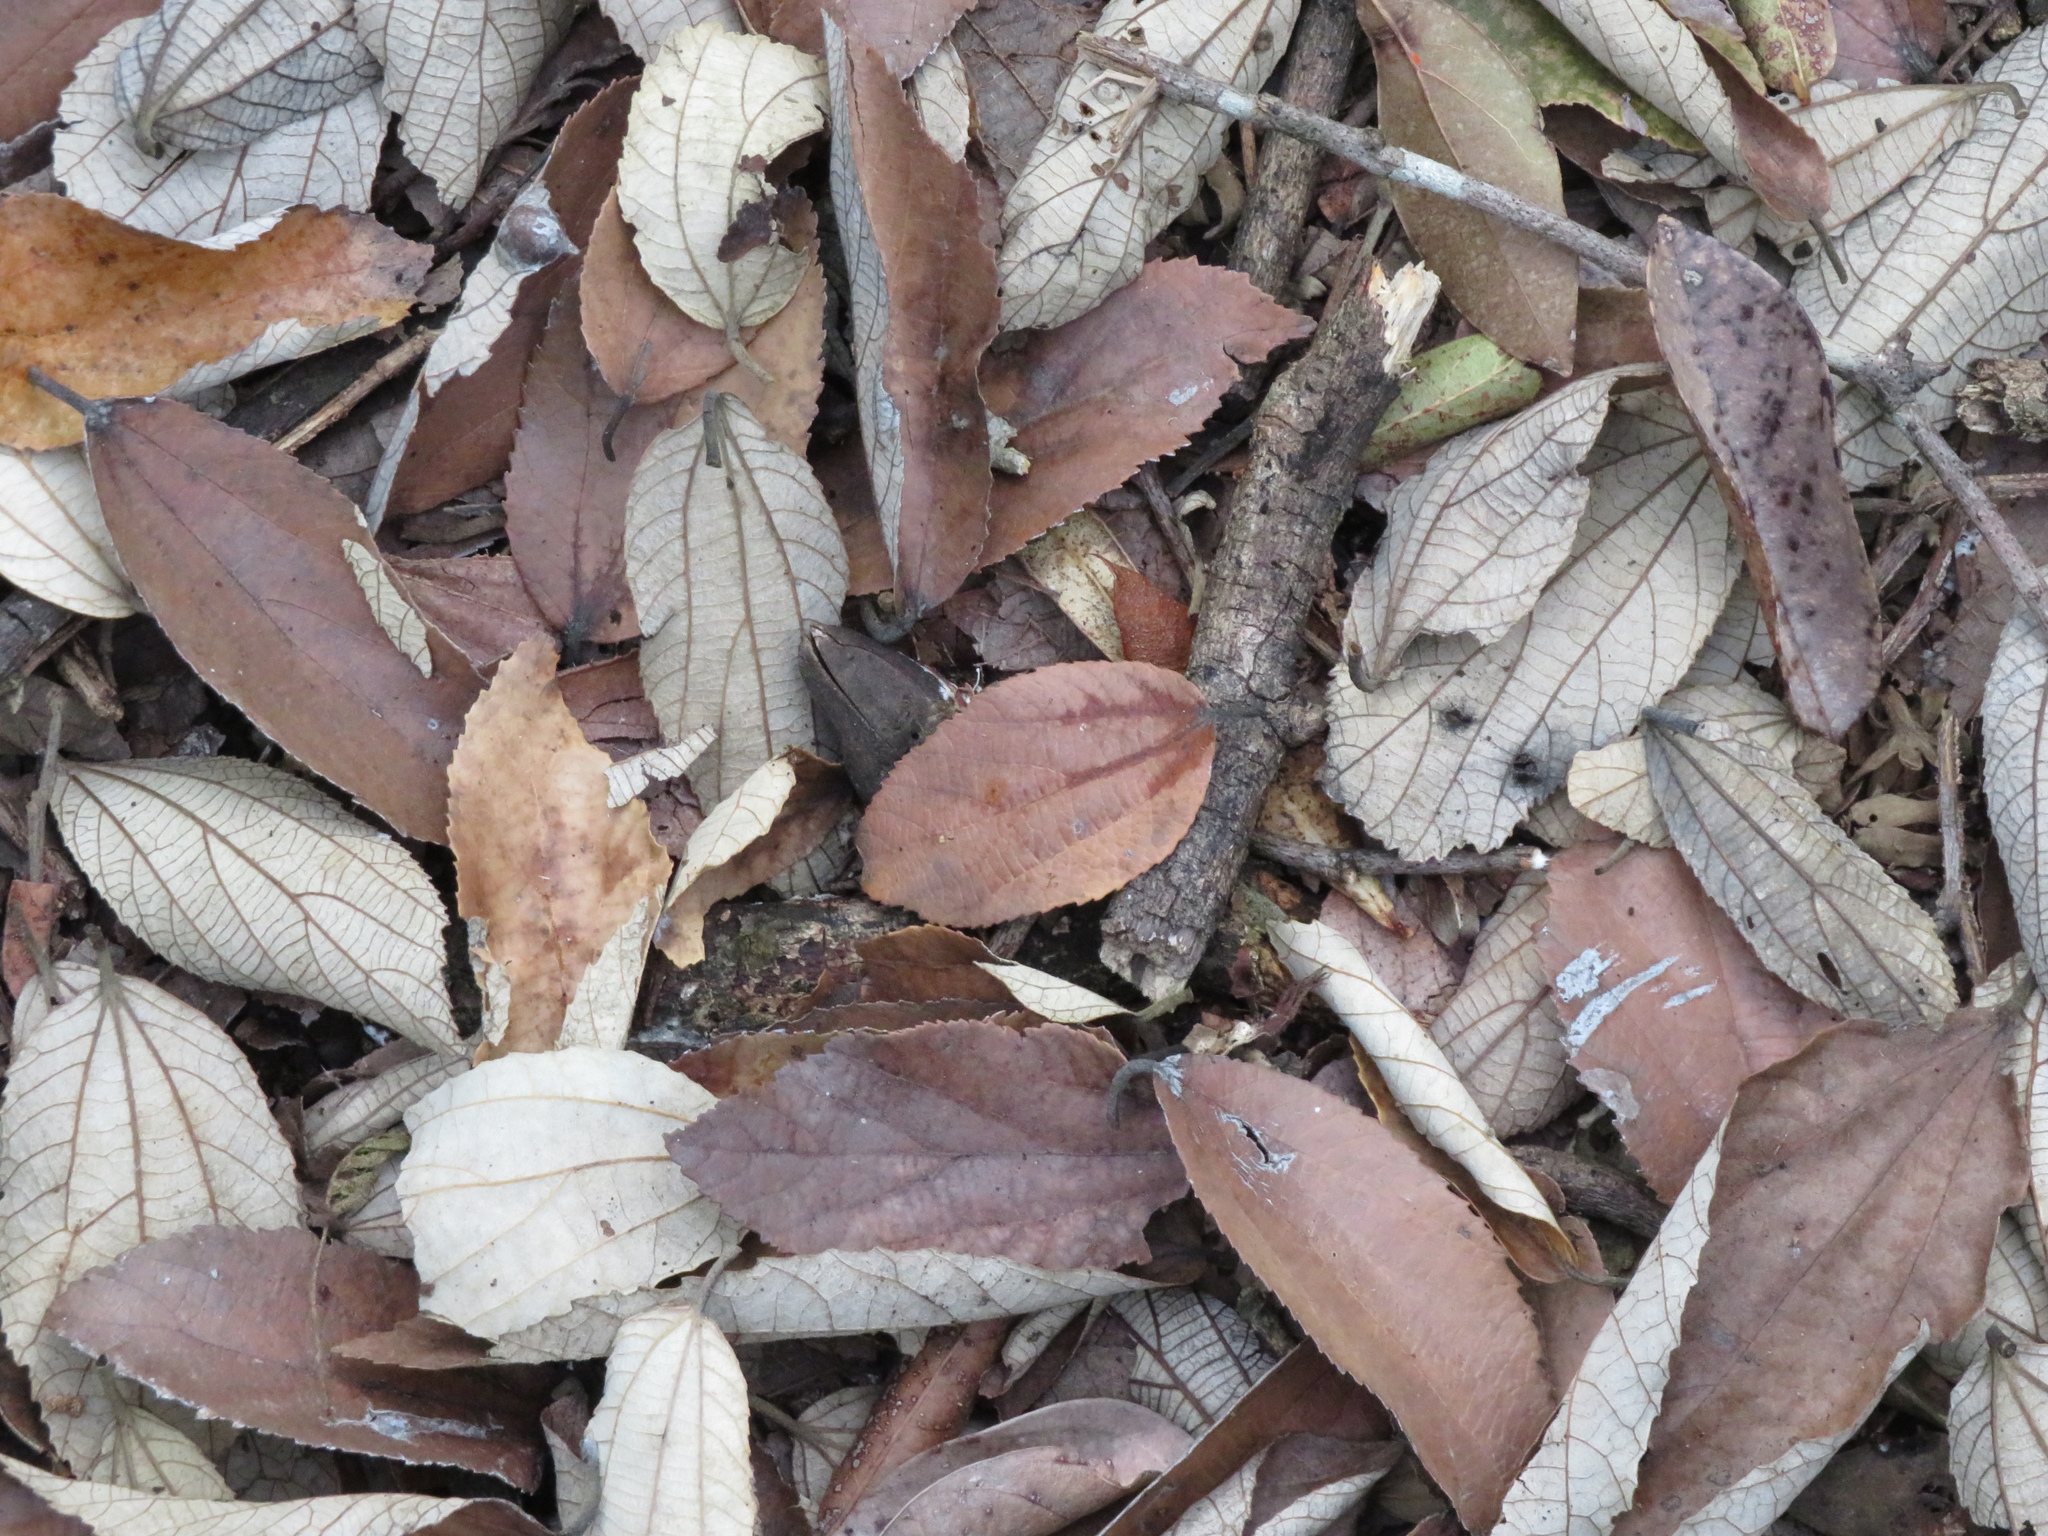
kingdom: Plantae
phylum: Tracheophyta
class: Magnoliopsida
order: Malvales
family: Malvaceae
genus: Luehea
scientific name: Luehea divaricata
